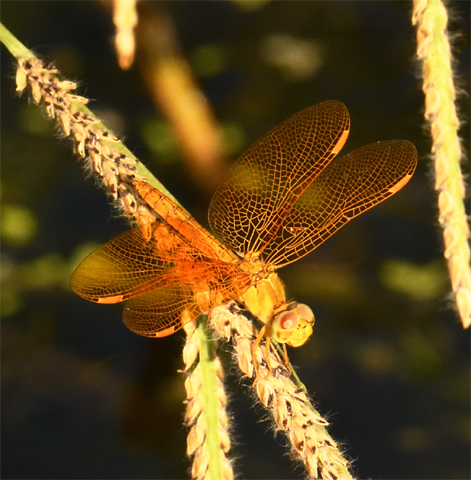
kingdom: Animalia
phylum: Arthropoda
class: Insecta
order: Odonata
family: Libellulidae
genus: Perithemis
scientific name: Perithemis intensa
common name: Mexican amberwing
